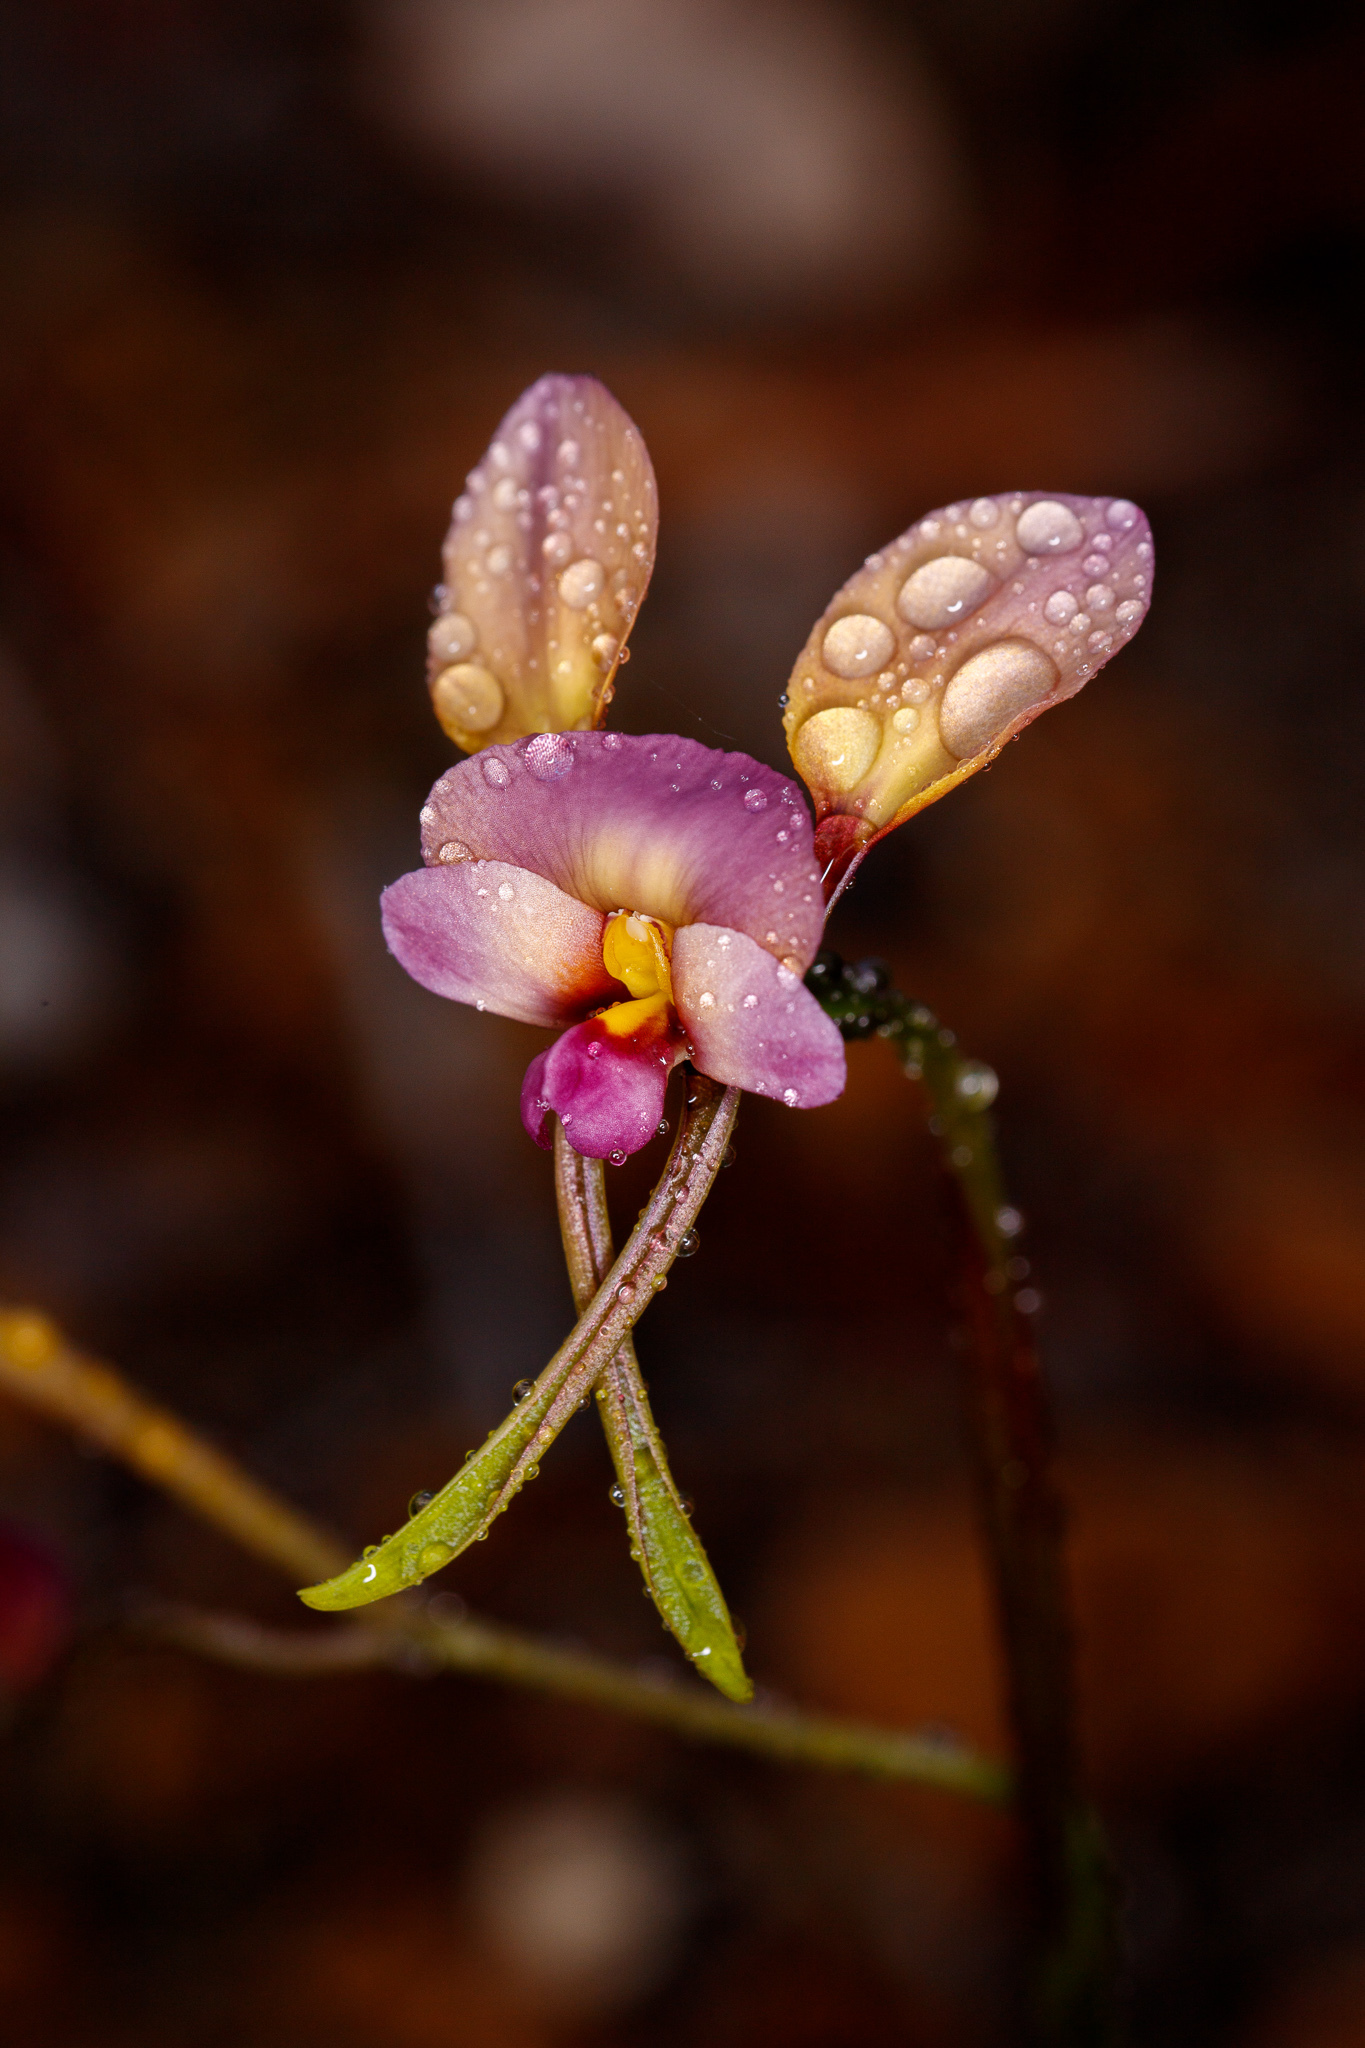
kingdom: Plantae
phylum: Tracheophyta
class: Liliopsida
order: Asparagales
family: Orchidaceae
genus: Diuris
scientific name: Diuris longifolia
